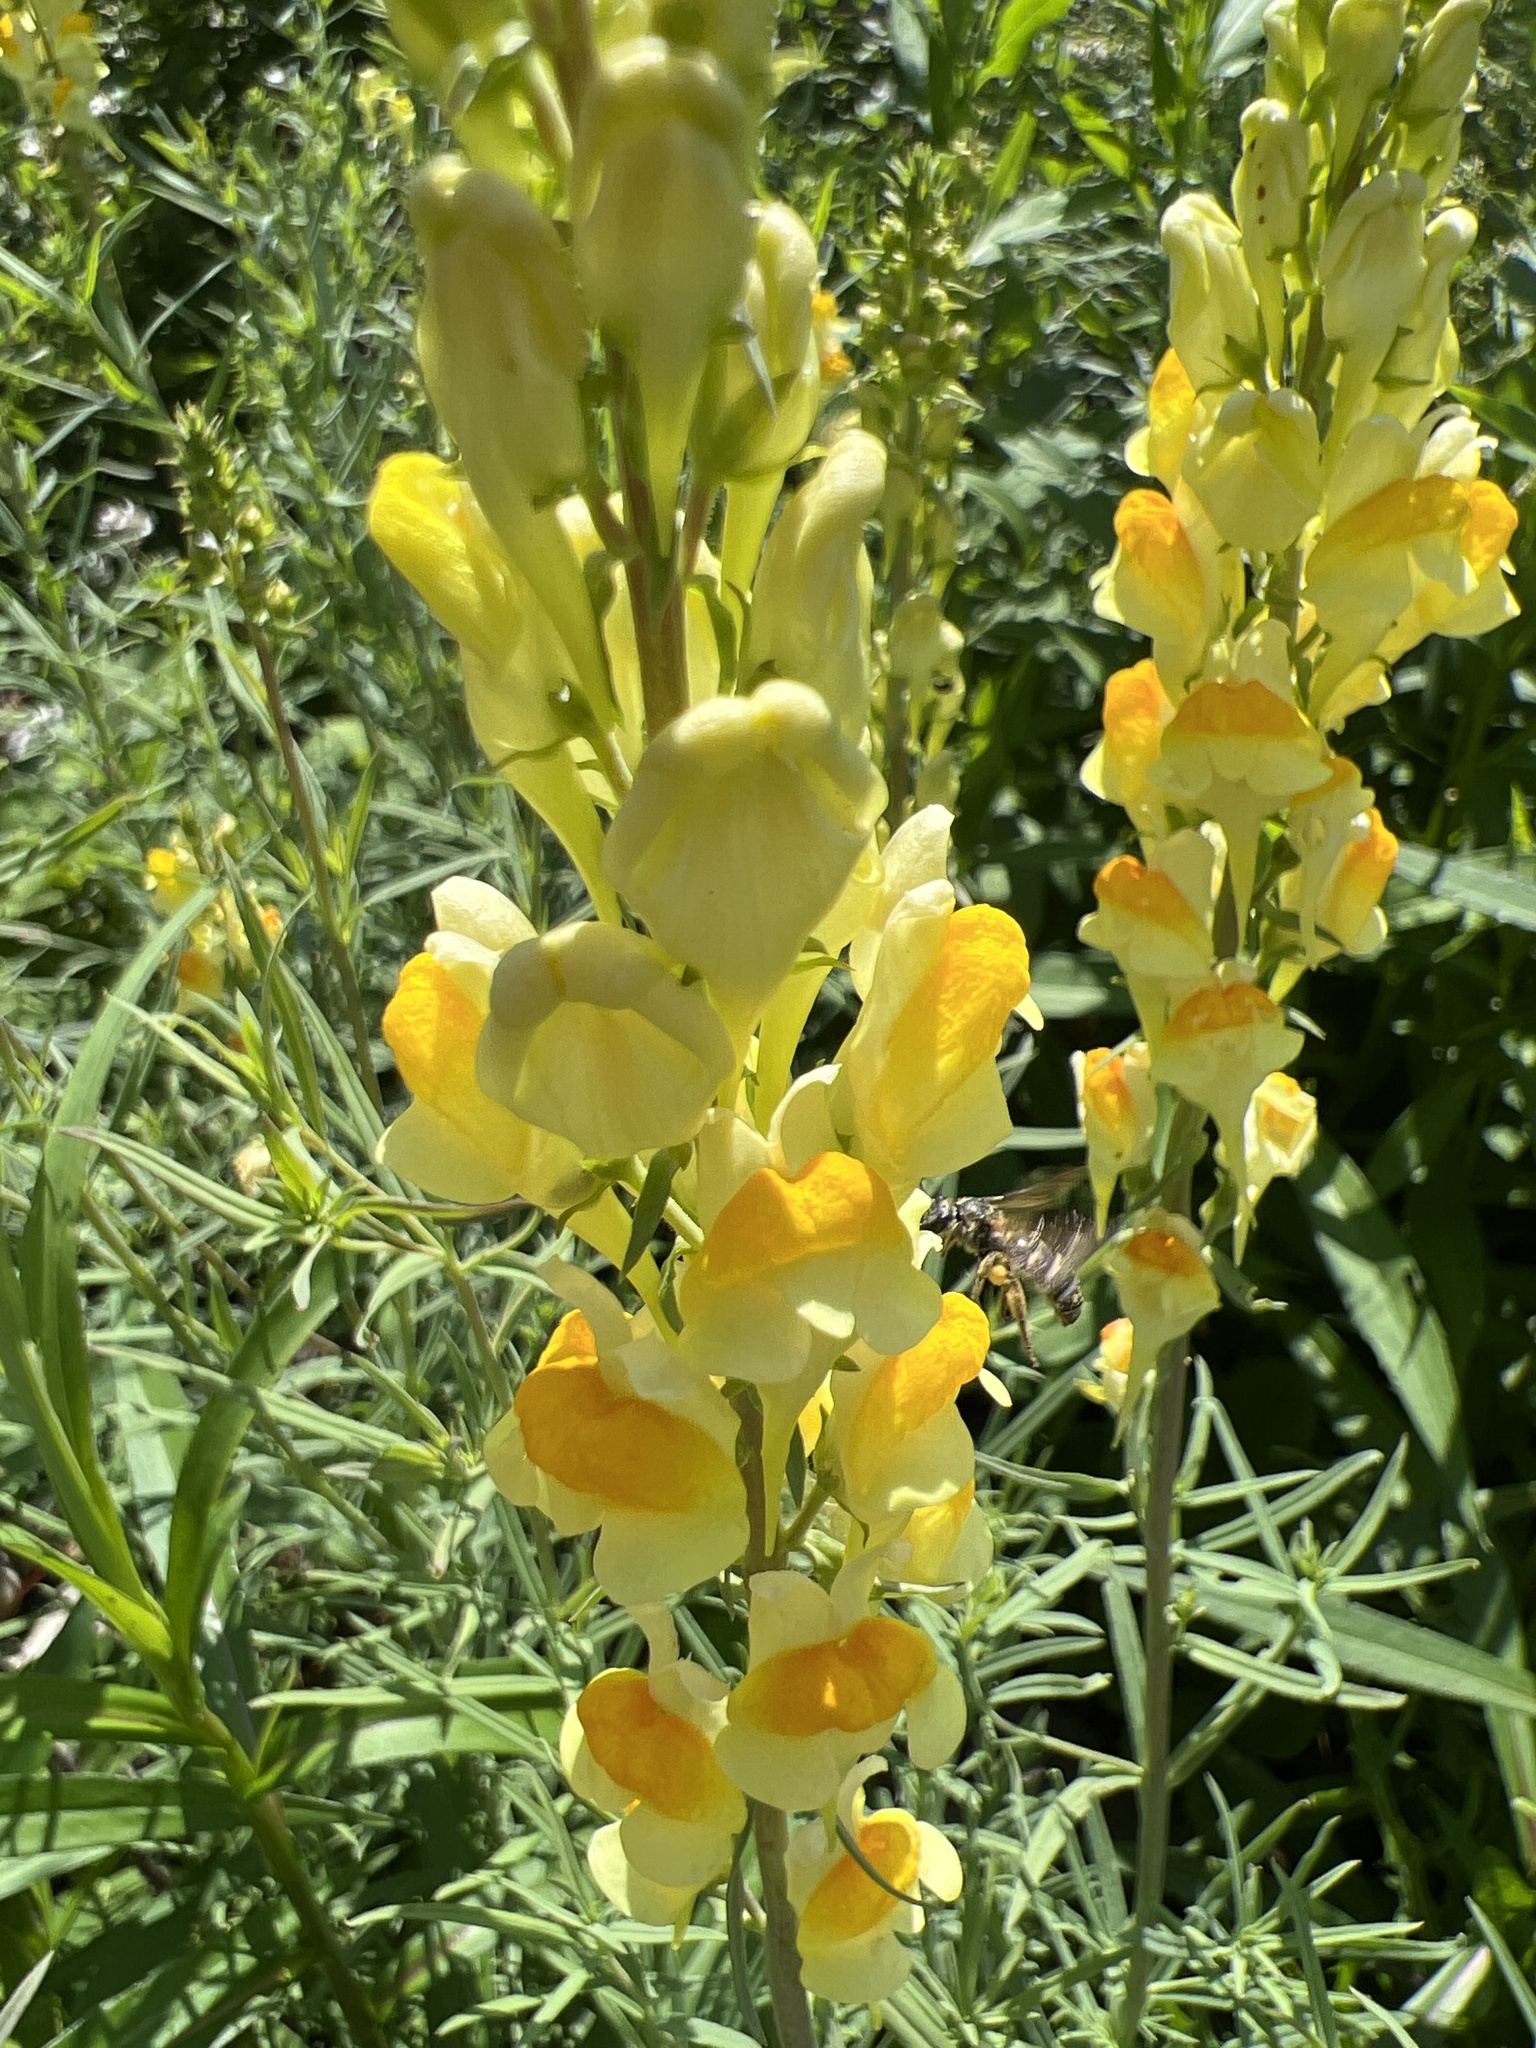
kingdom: Plantae
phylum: Tracheophyta
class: Magnoliopsida
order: Lamiales
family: Plantaginaceae
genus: Linaria
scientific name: Linaria vulgaris
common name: Butter and eggs
